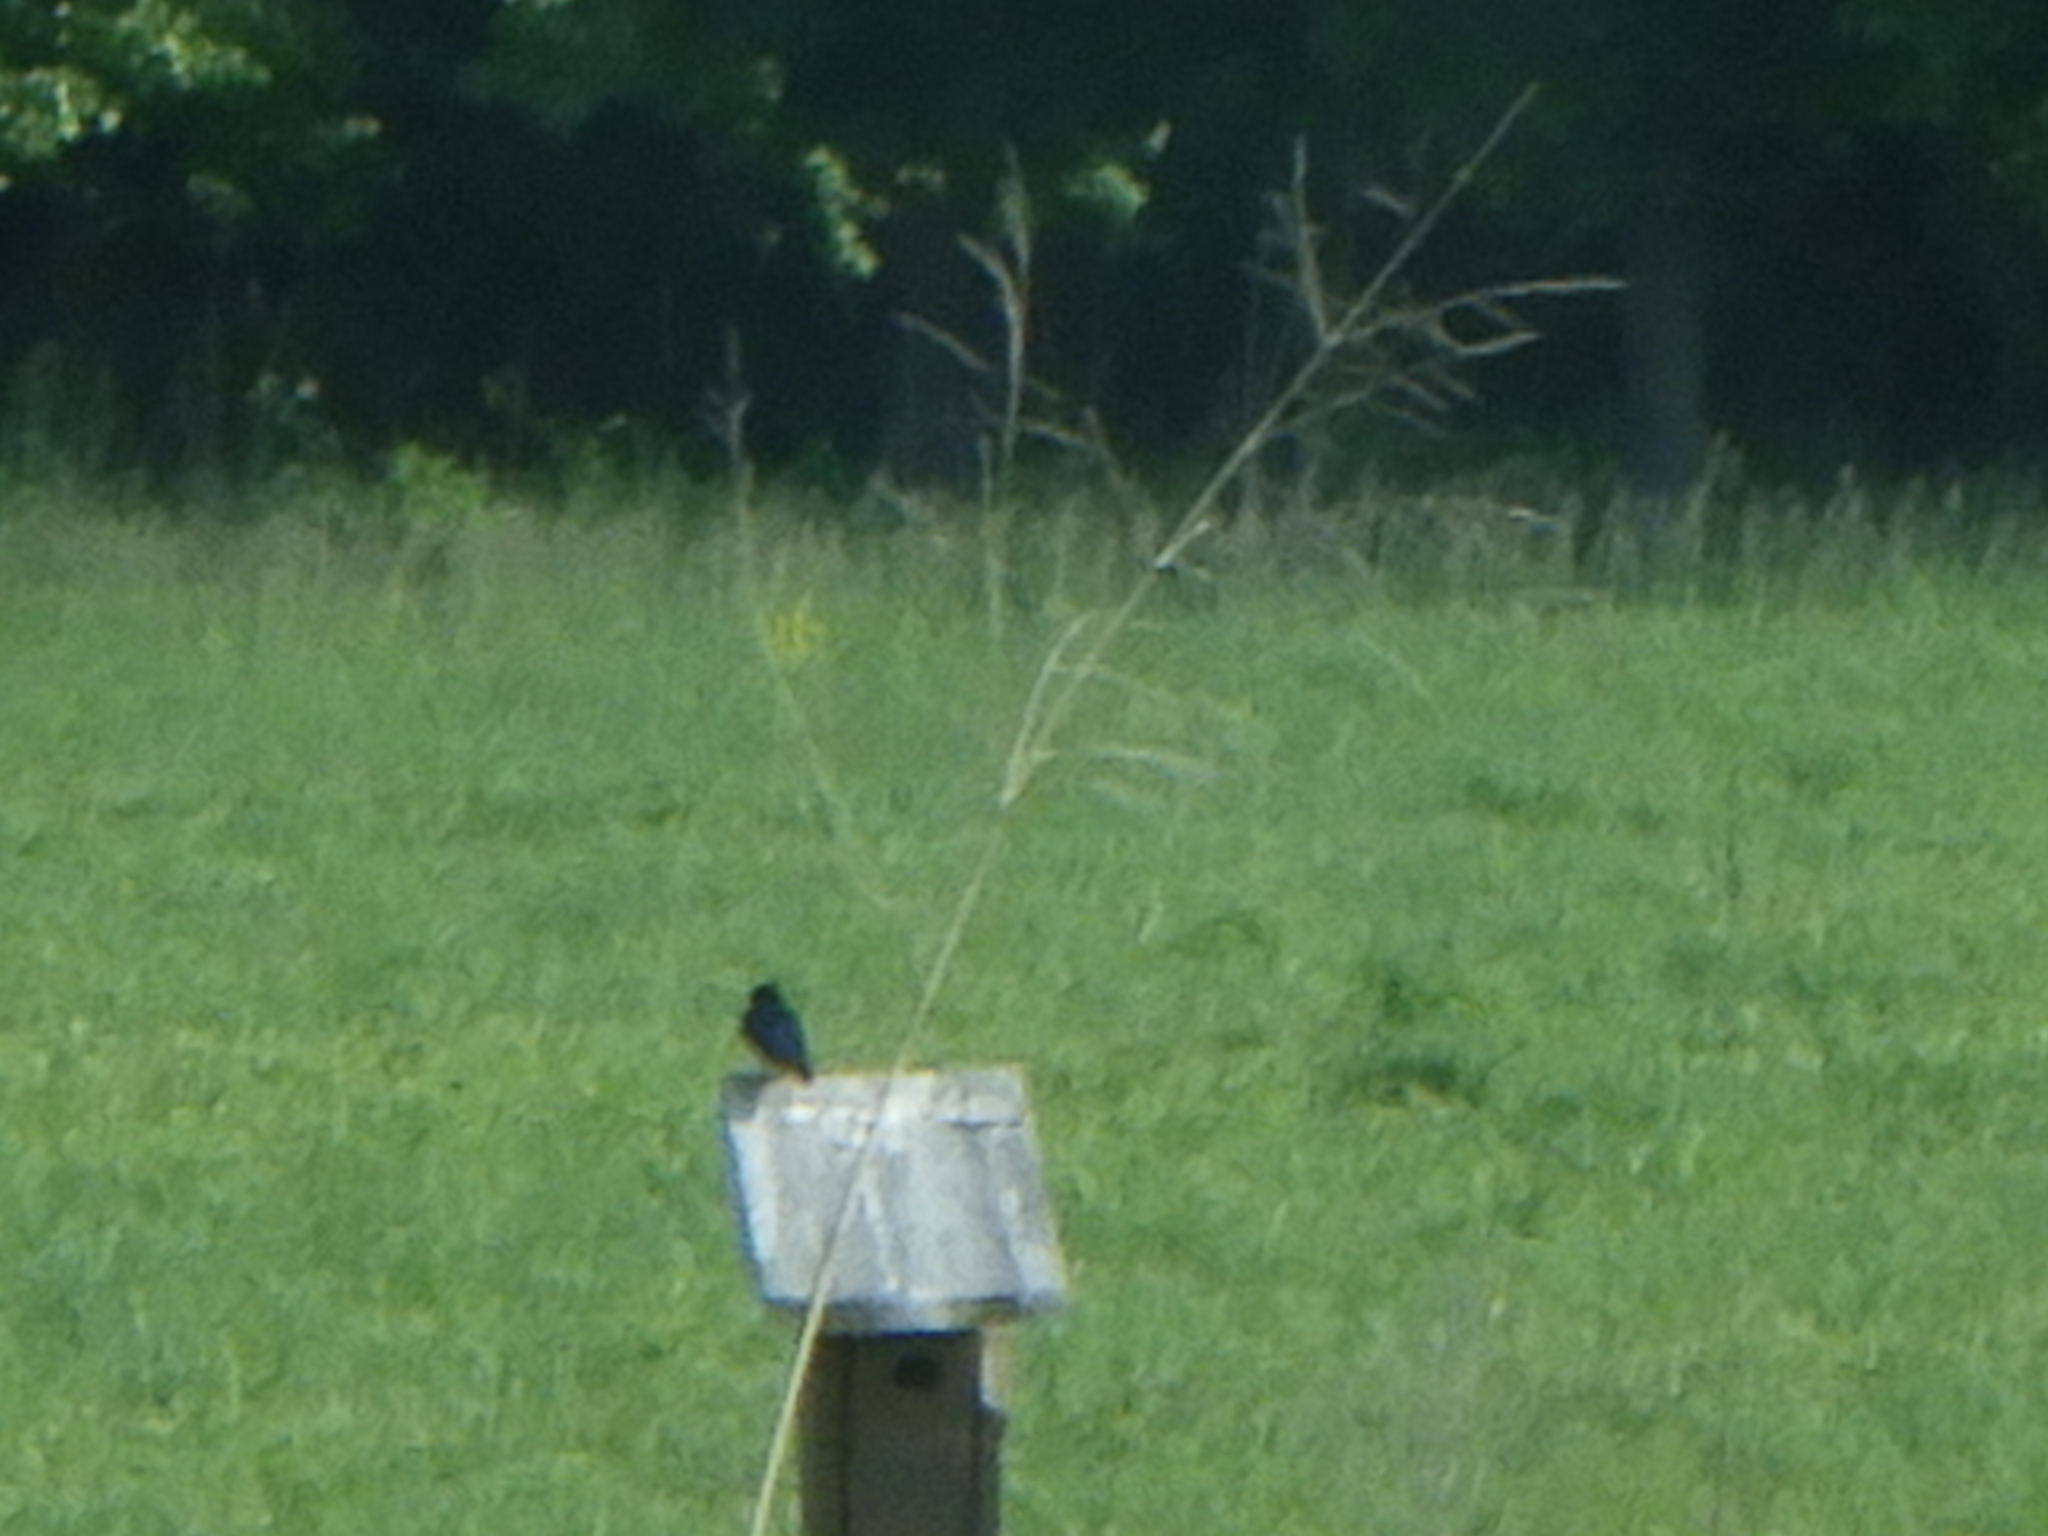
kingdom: Animalia
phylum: Chordata
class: Aves
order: Passeriformes
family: Hirundinidae
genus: Tachycineta
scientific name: Tachycineta bicolor
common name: Tree swallow
